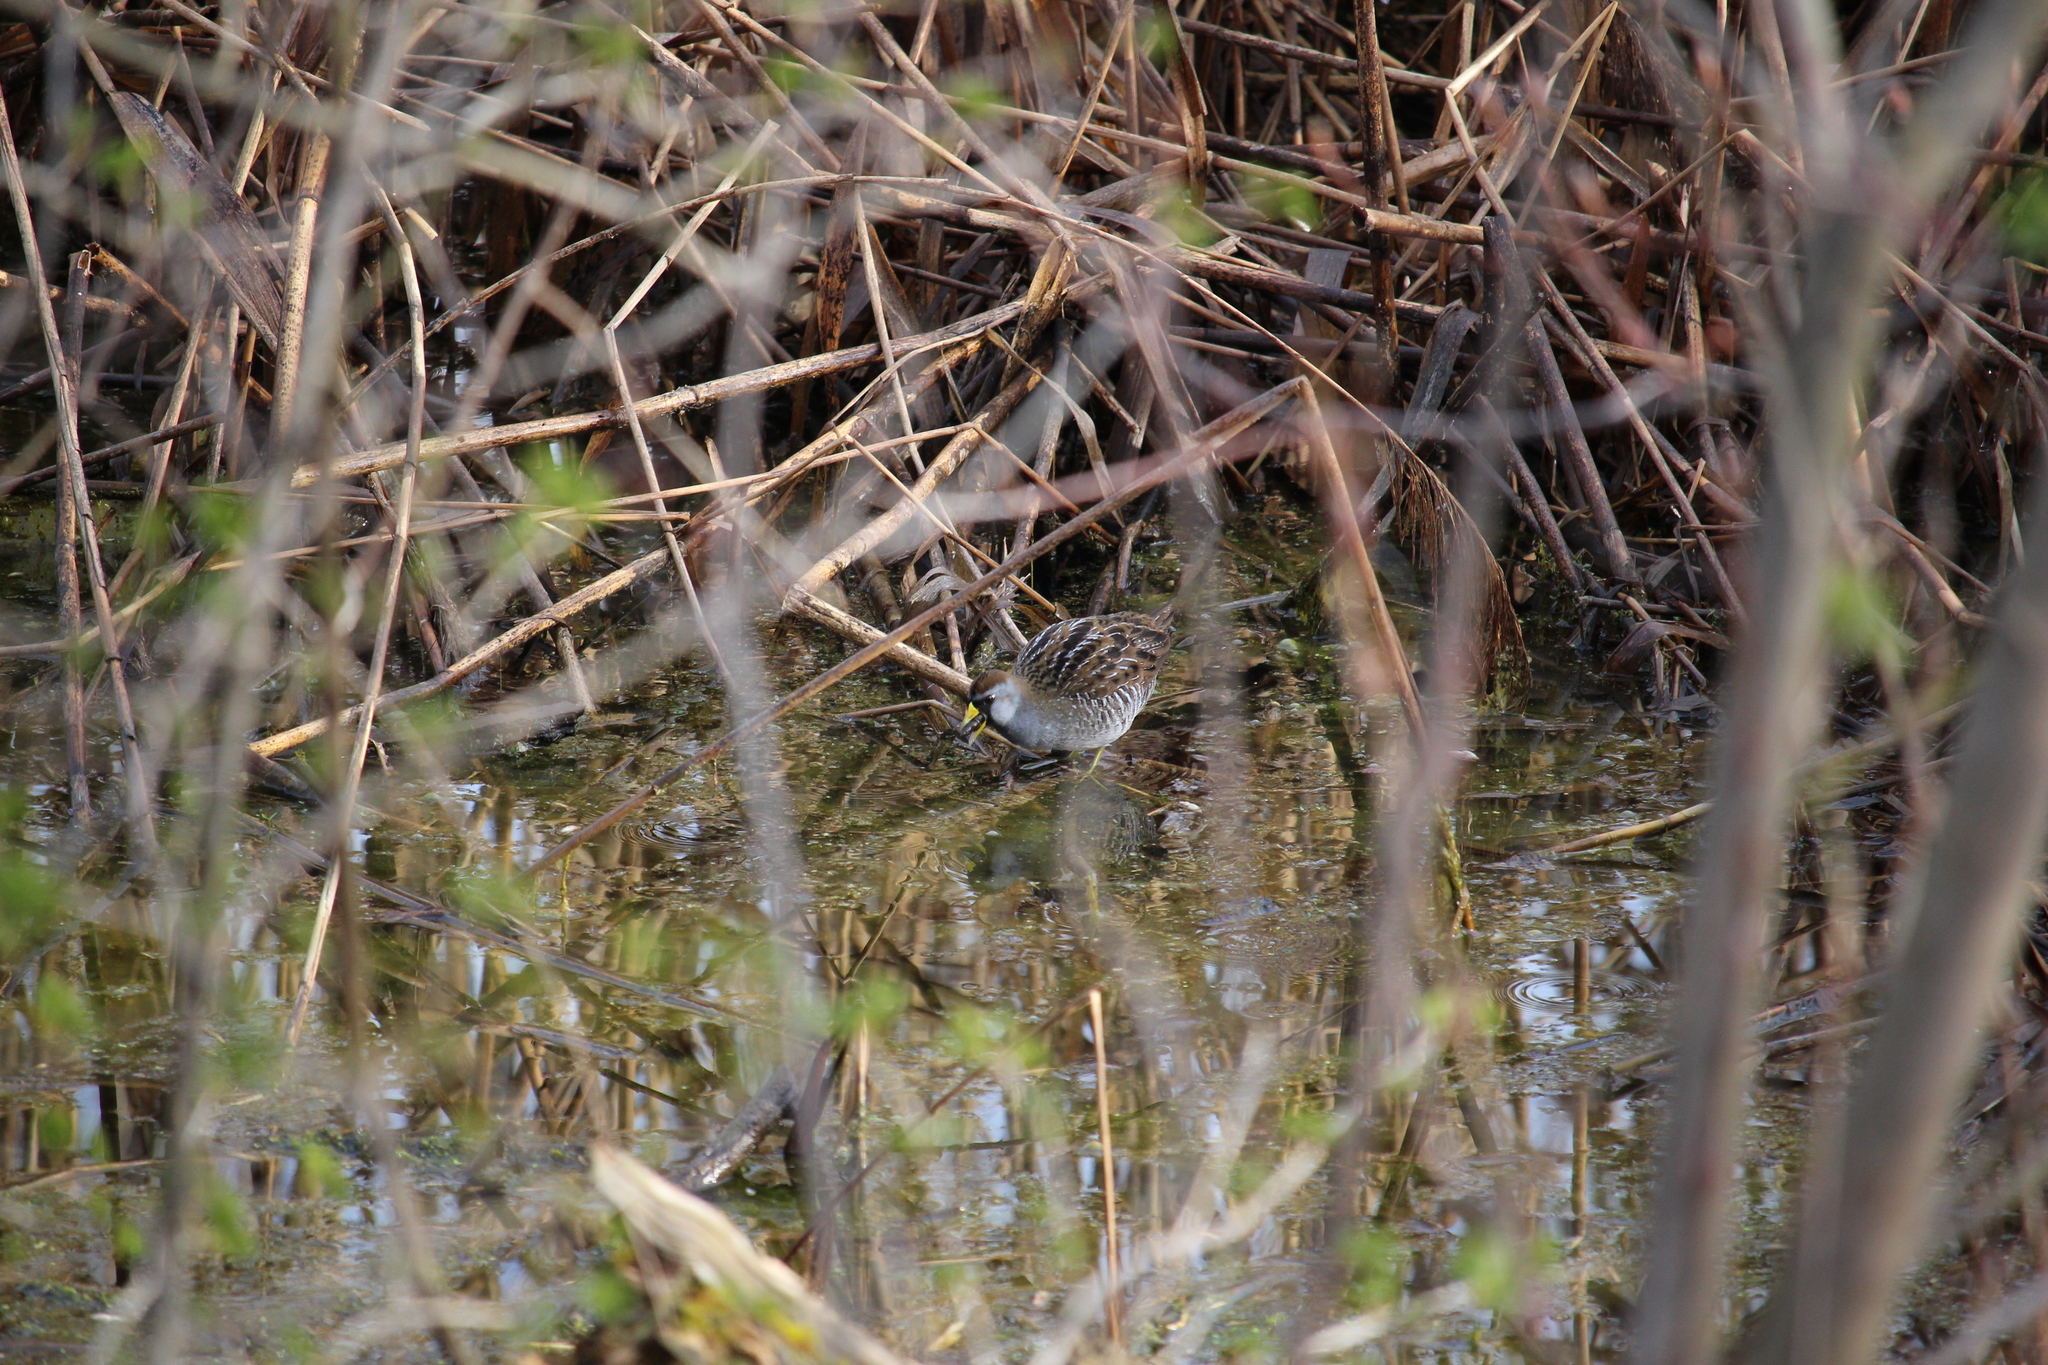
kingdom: Animalia
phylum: Chordata
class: Aves
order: Gruiformes
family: Rallidae
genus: Porzana
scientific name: Porzana carolina
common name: Sora
